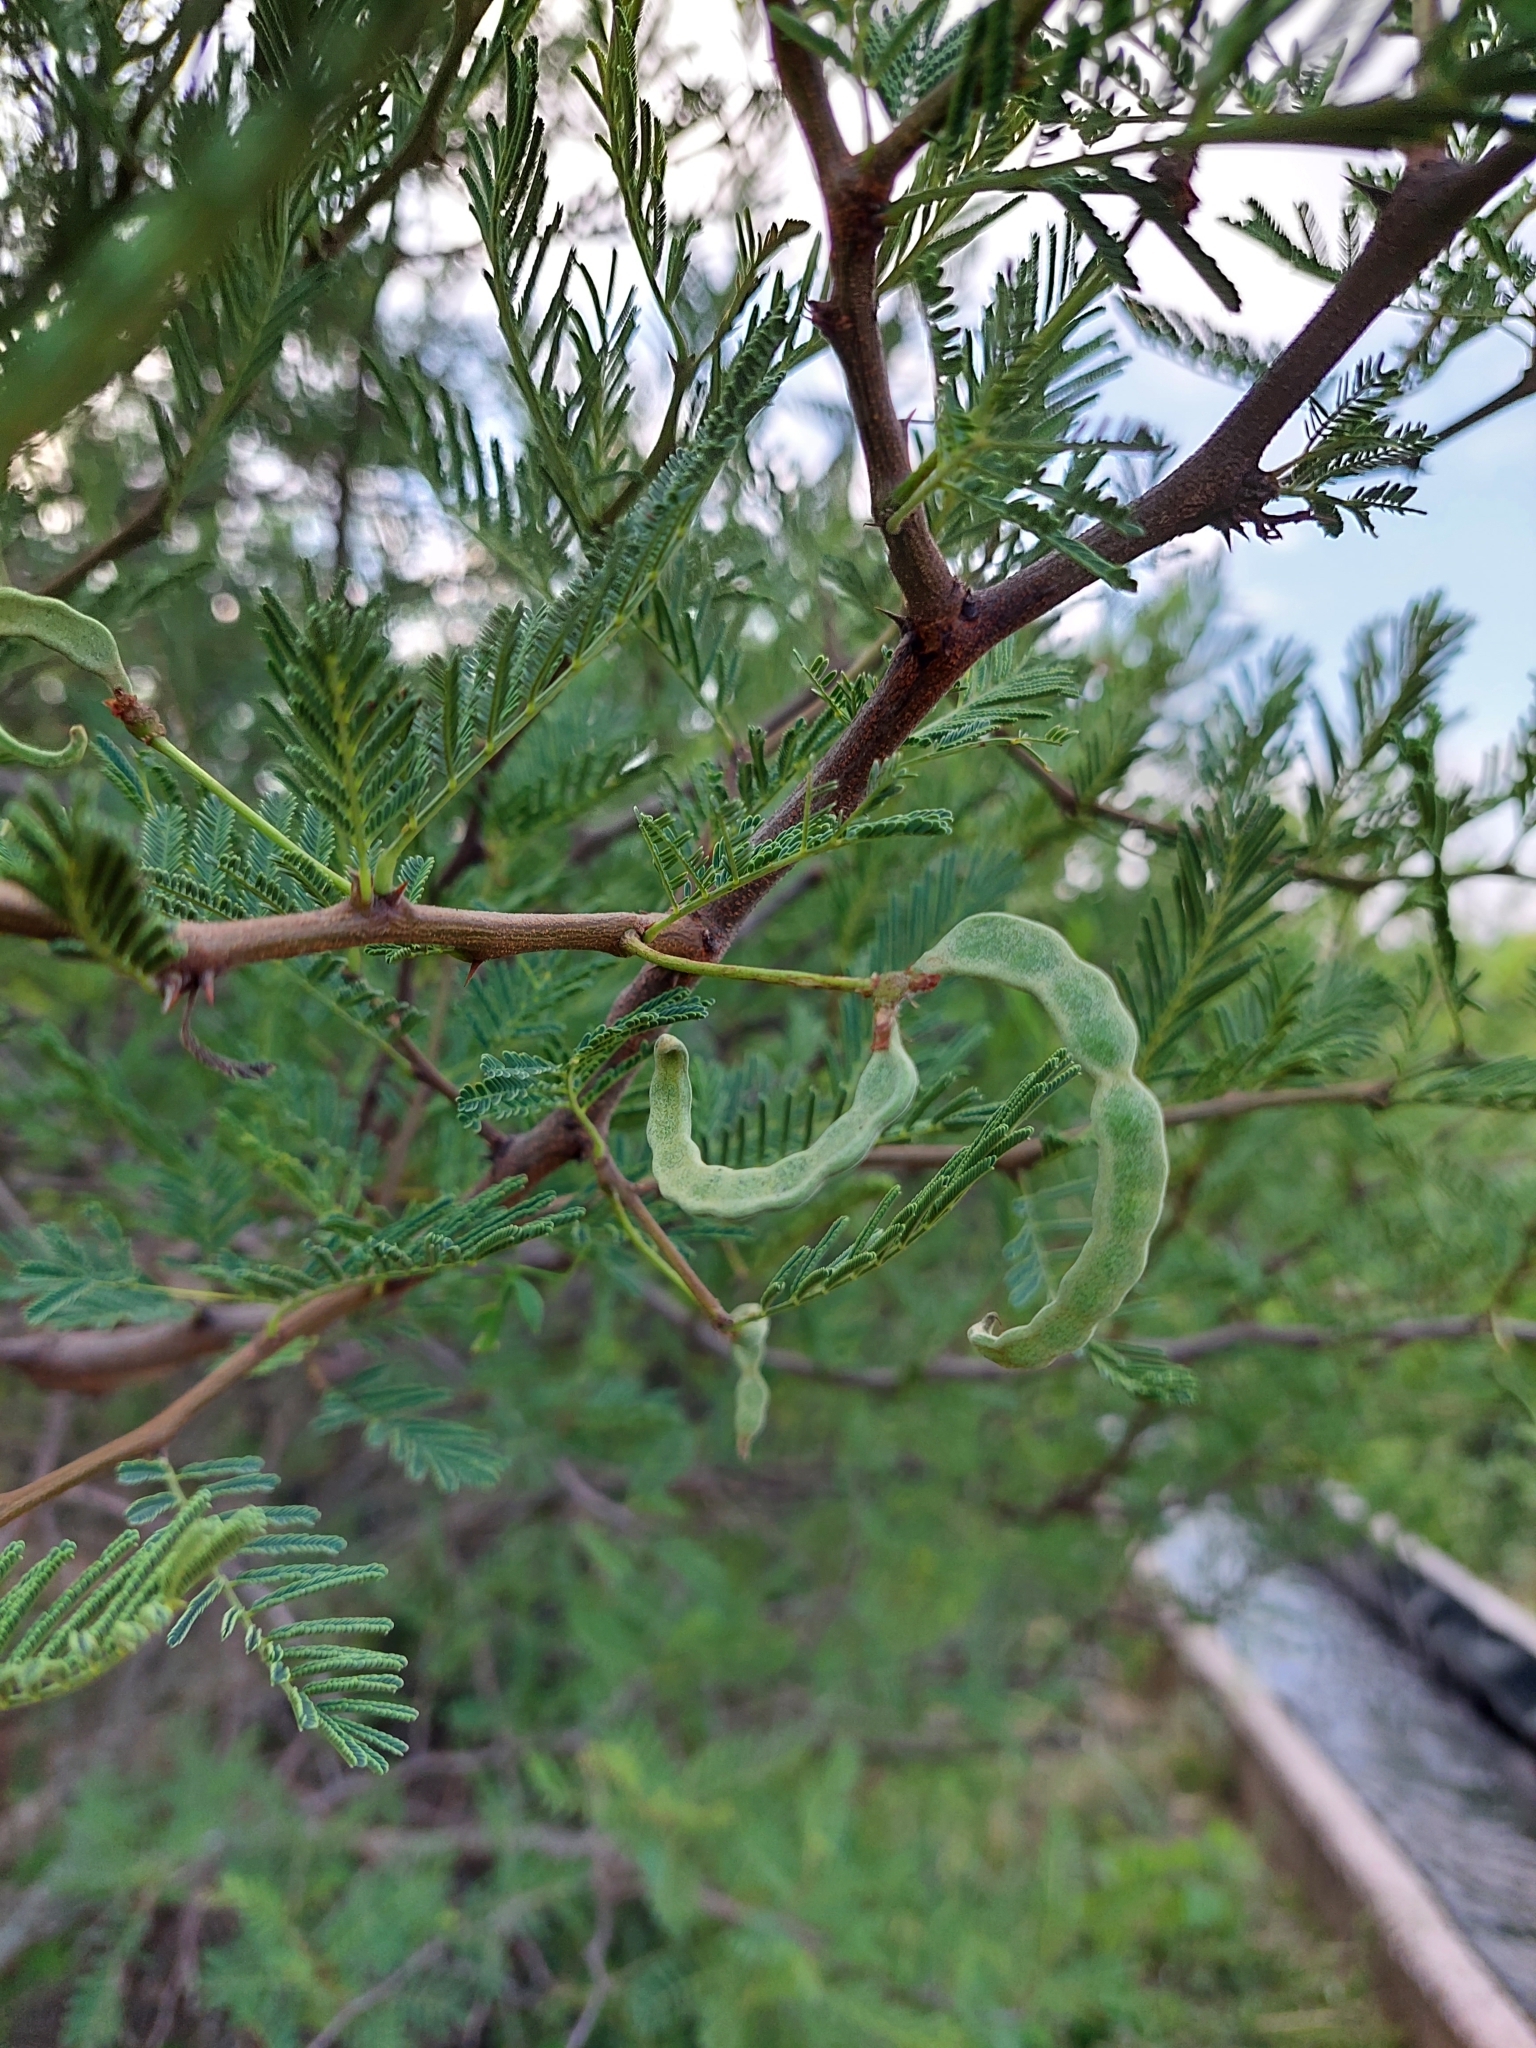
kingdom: Plantae
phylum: Tracheophyta
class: Magnoliopsida
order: Fabales
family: Fabaceae
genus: Vachellia
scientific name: Vachellia aroma
